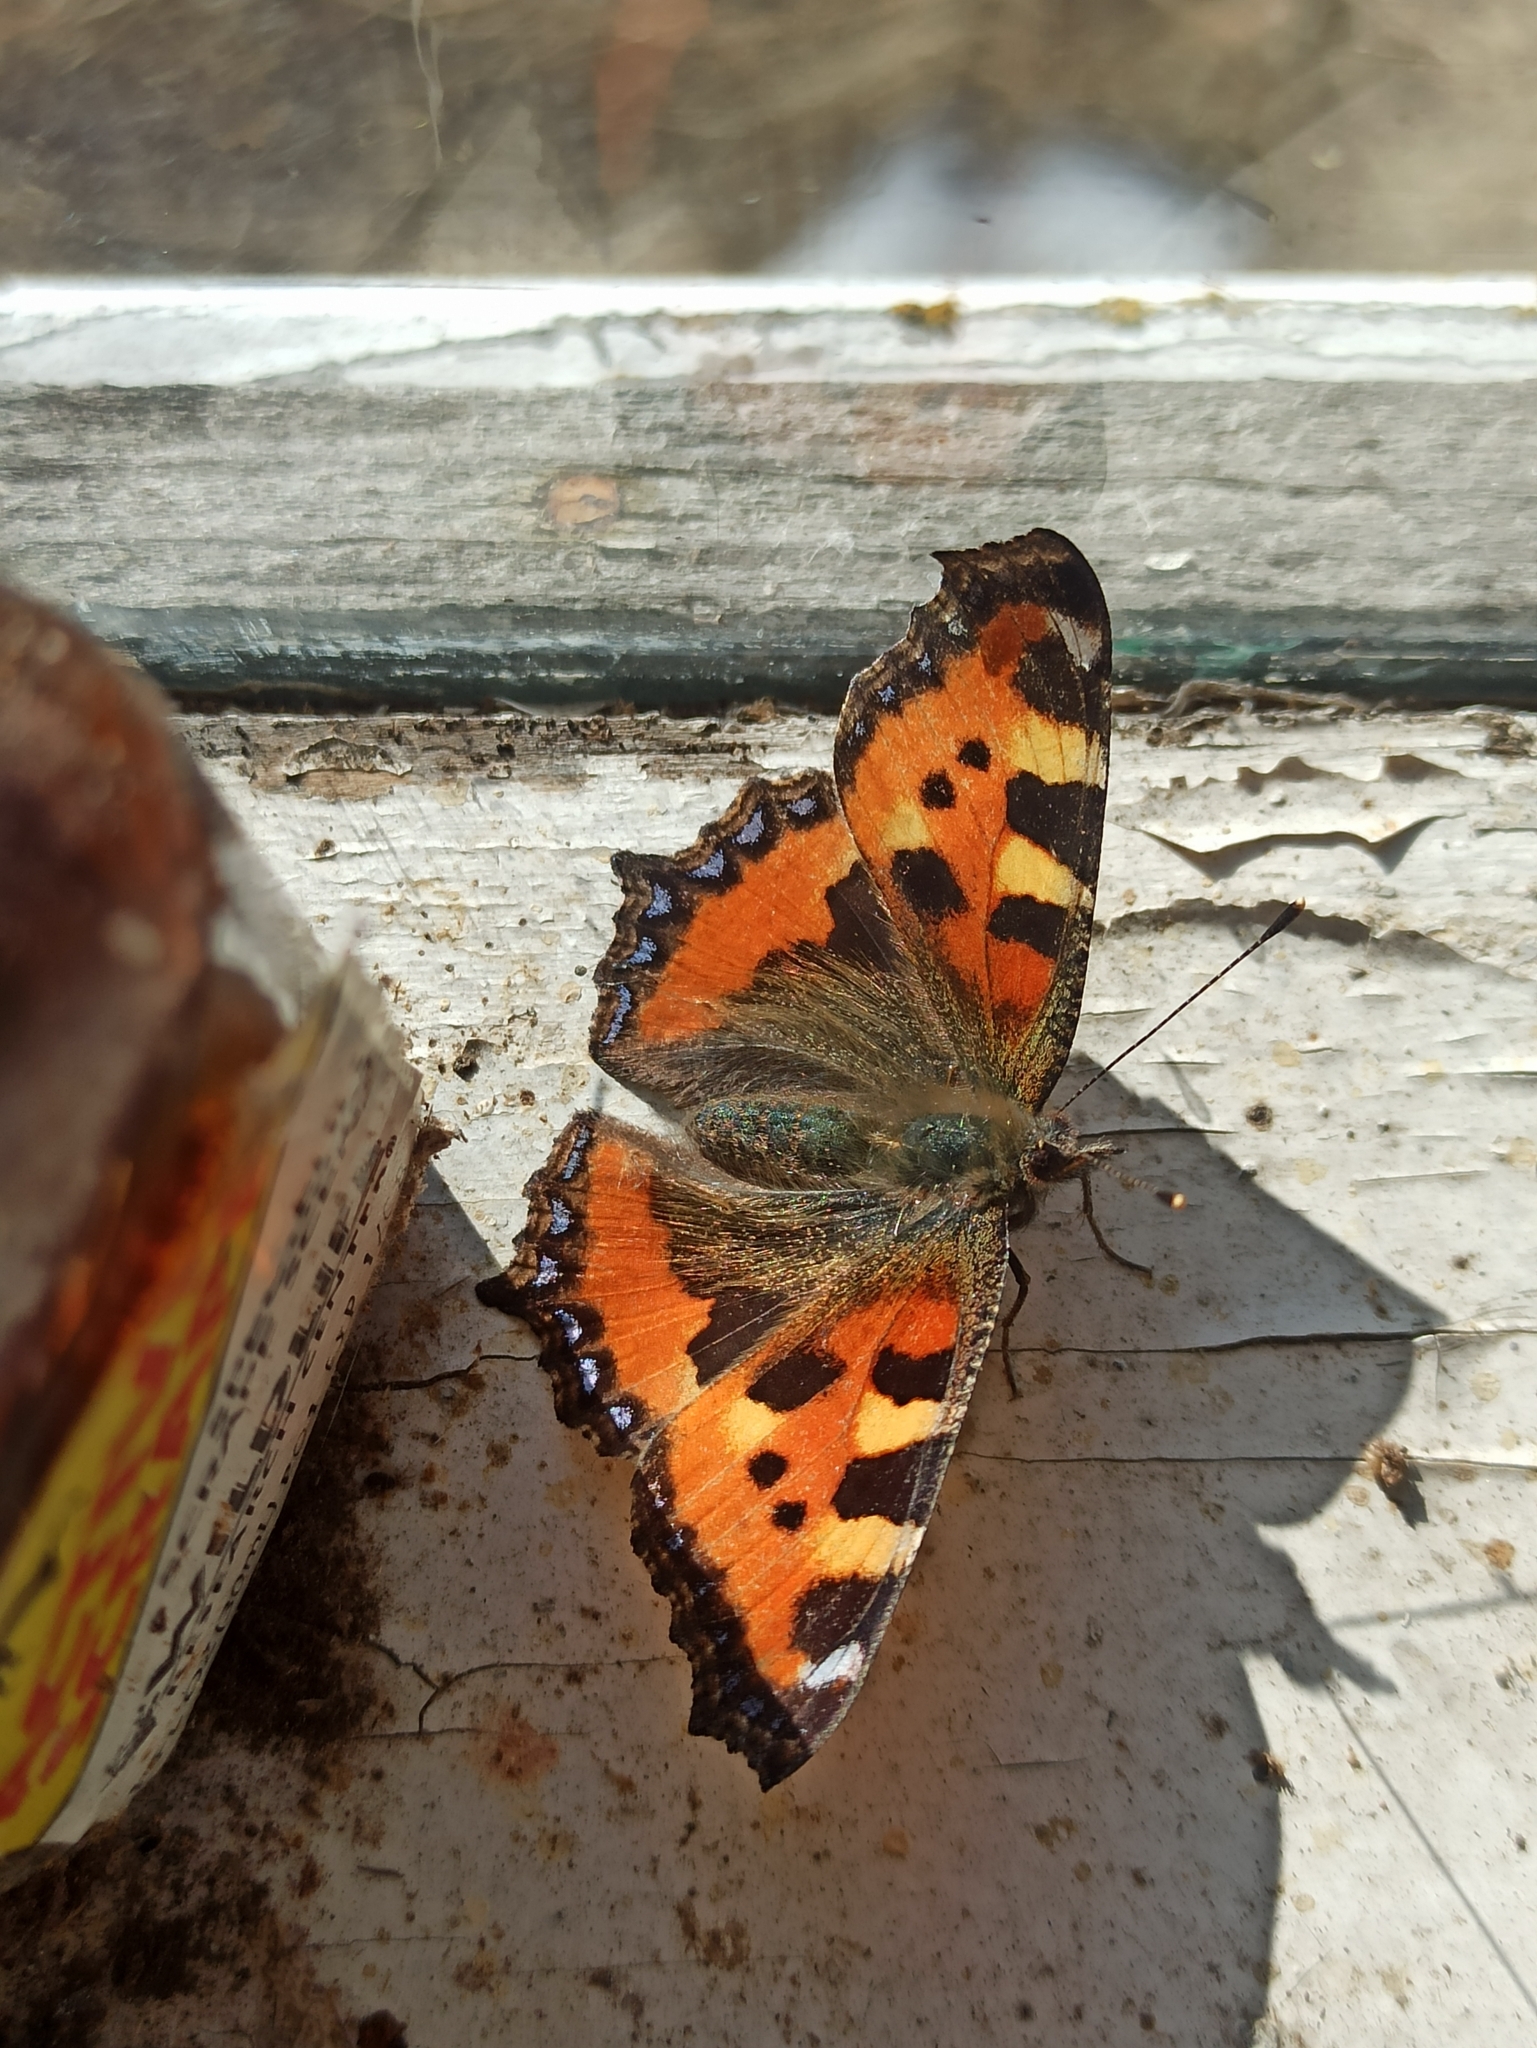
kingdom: Animalia
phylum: Arthropoda
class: Insecta
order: Lepidoptera
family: Nymphalidae
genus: Aglais
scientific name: Aglais urticae
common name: Small tortoiseshell
